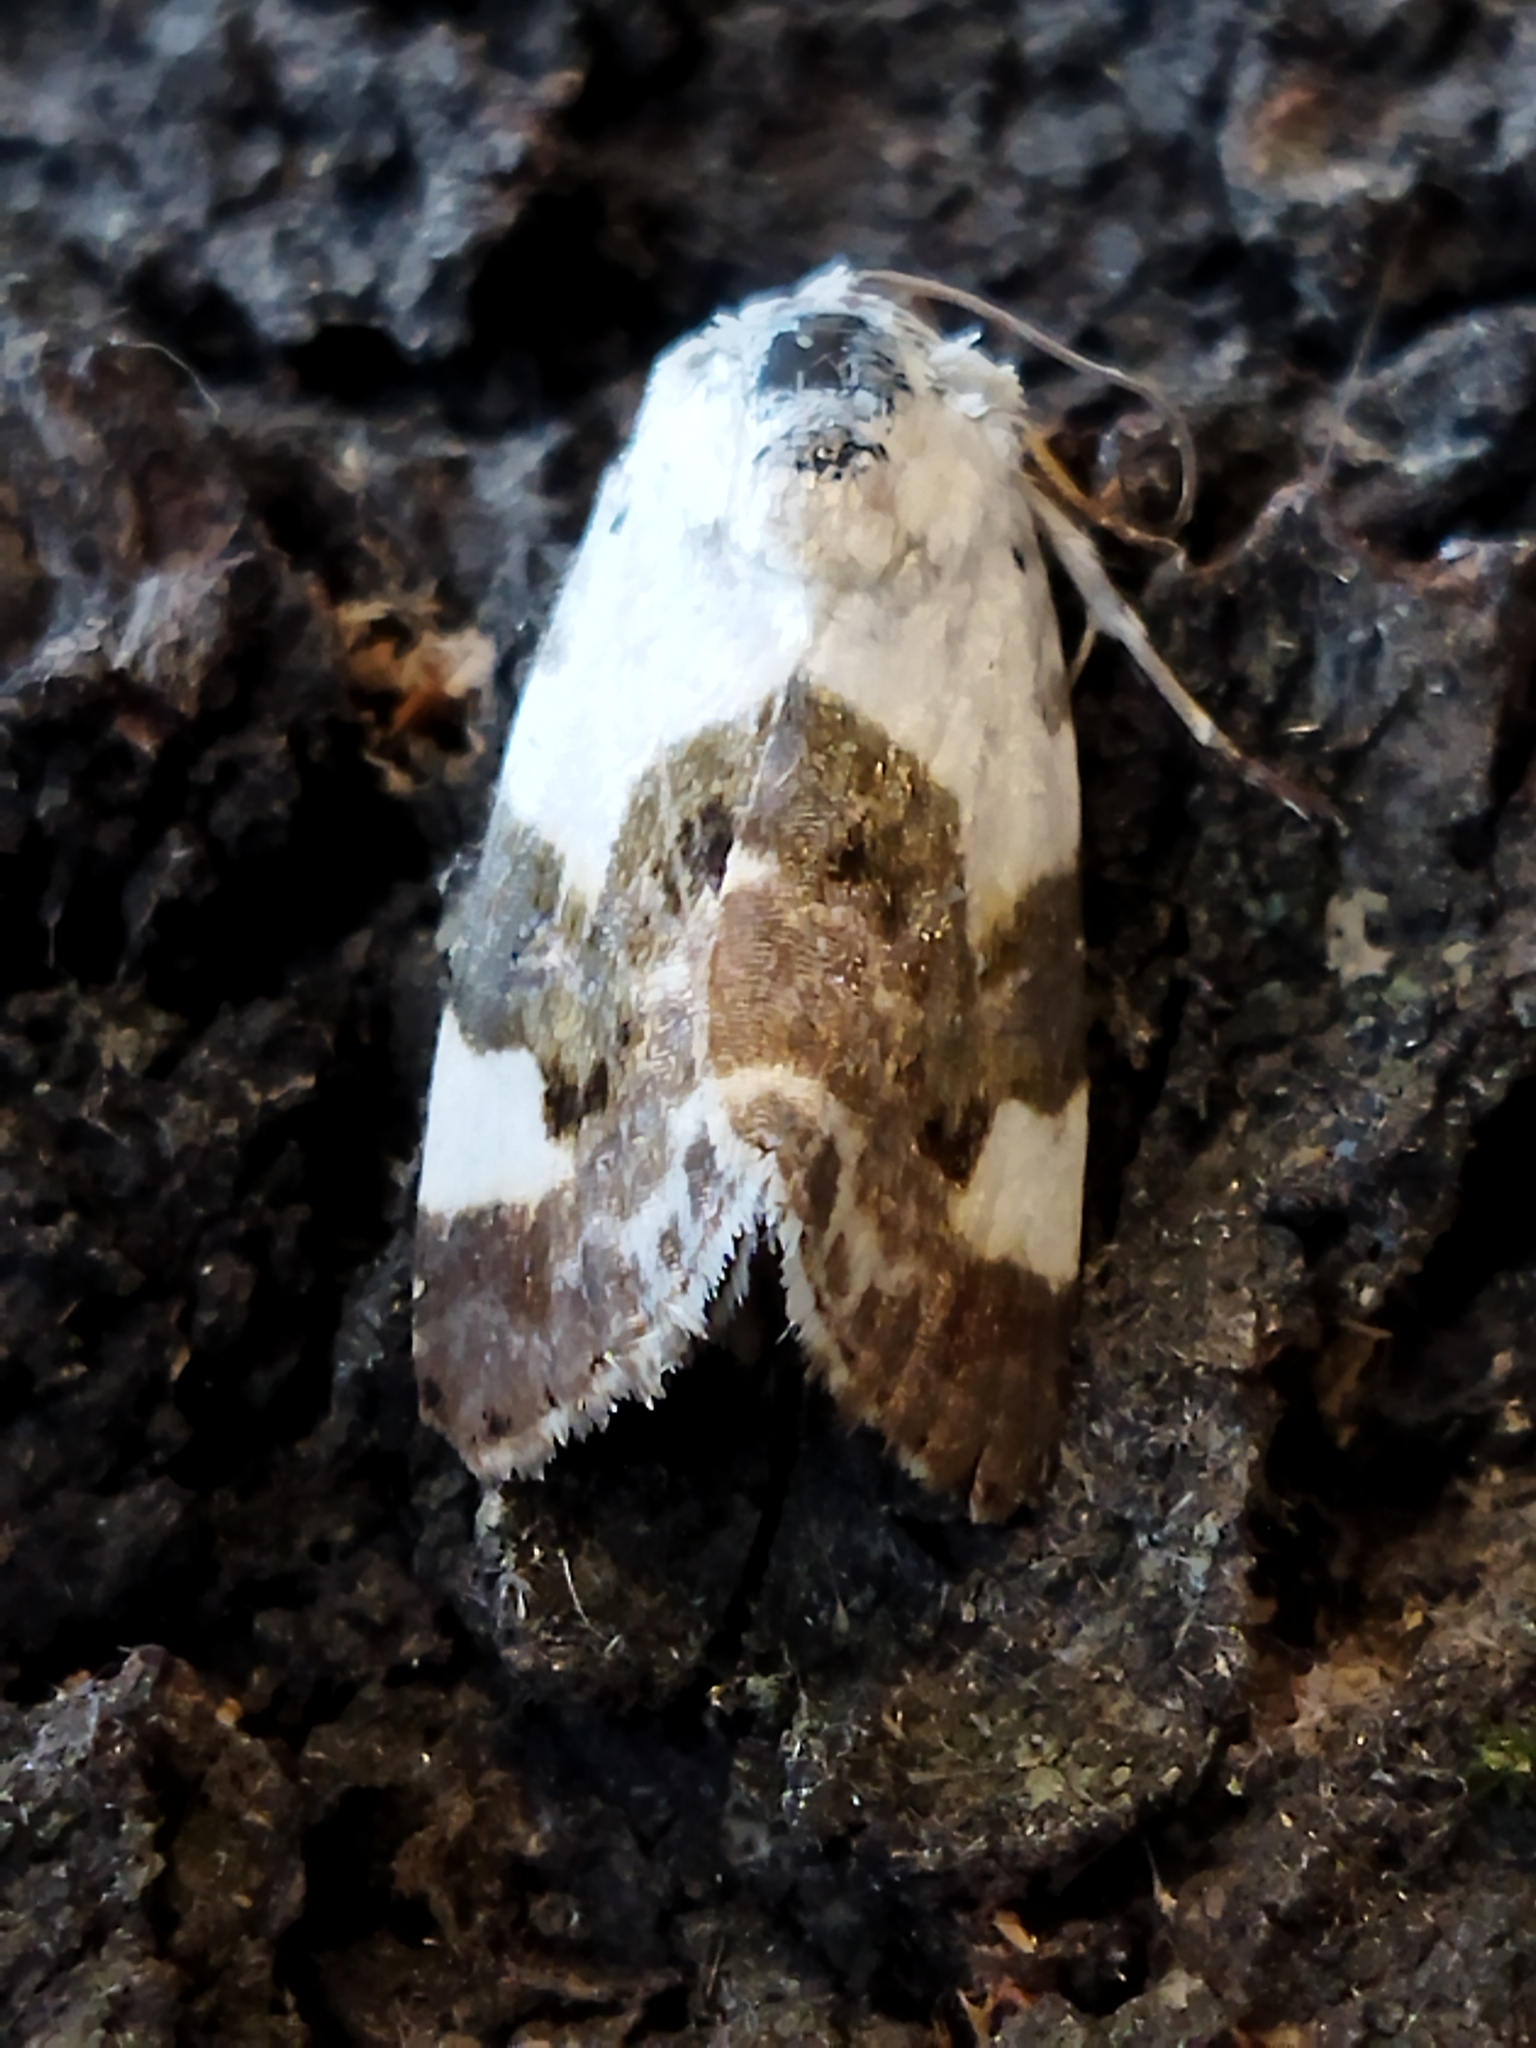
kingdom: Animalia
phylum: Arthropoda
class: Insecta
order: Lepidoptera
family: Noctuidae
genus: Acontia
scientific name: Acontia lucida
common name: Pale shoulder
